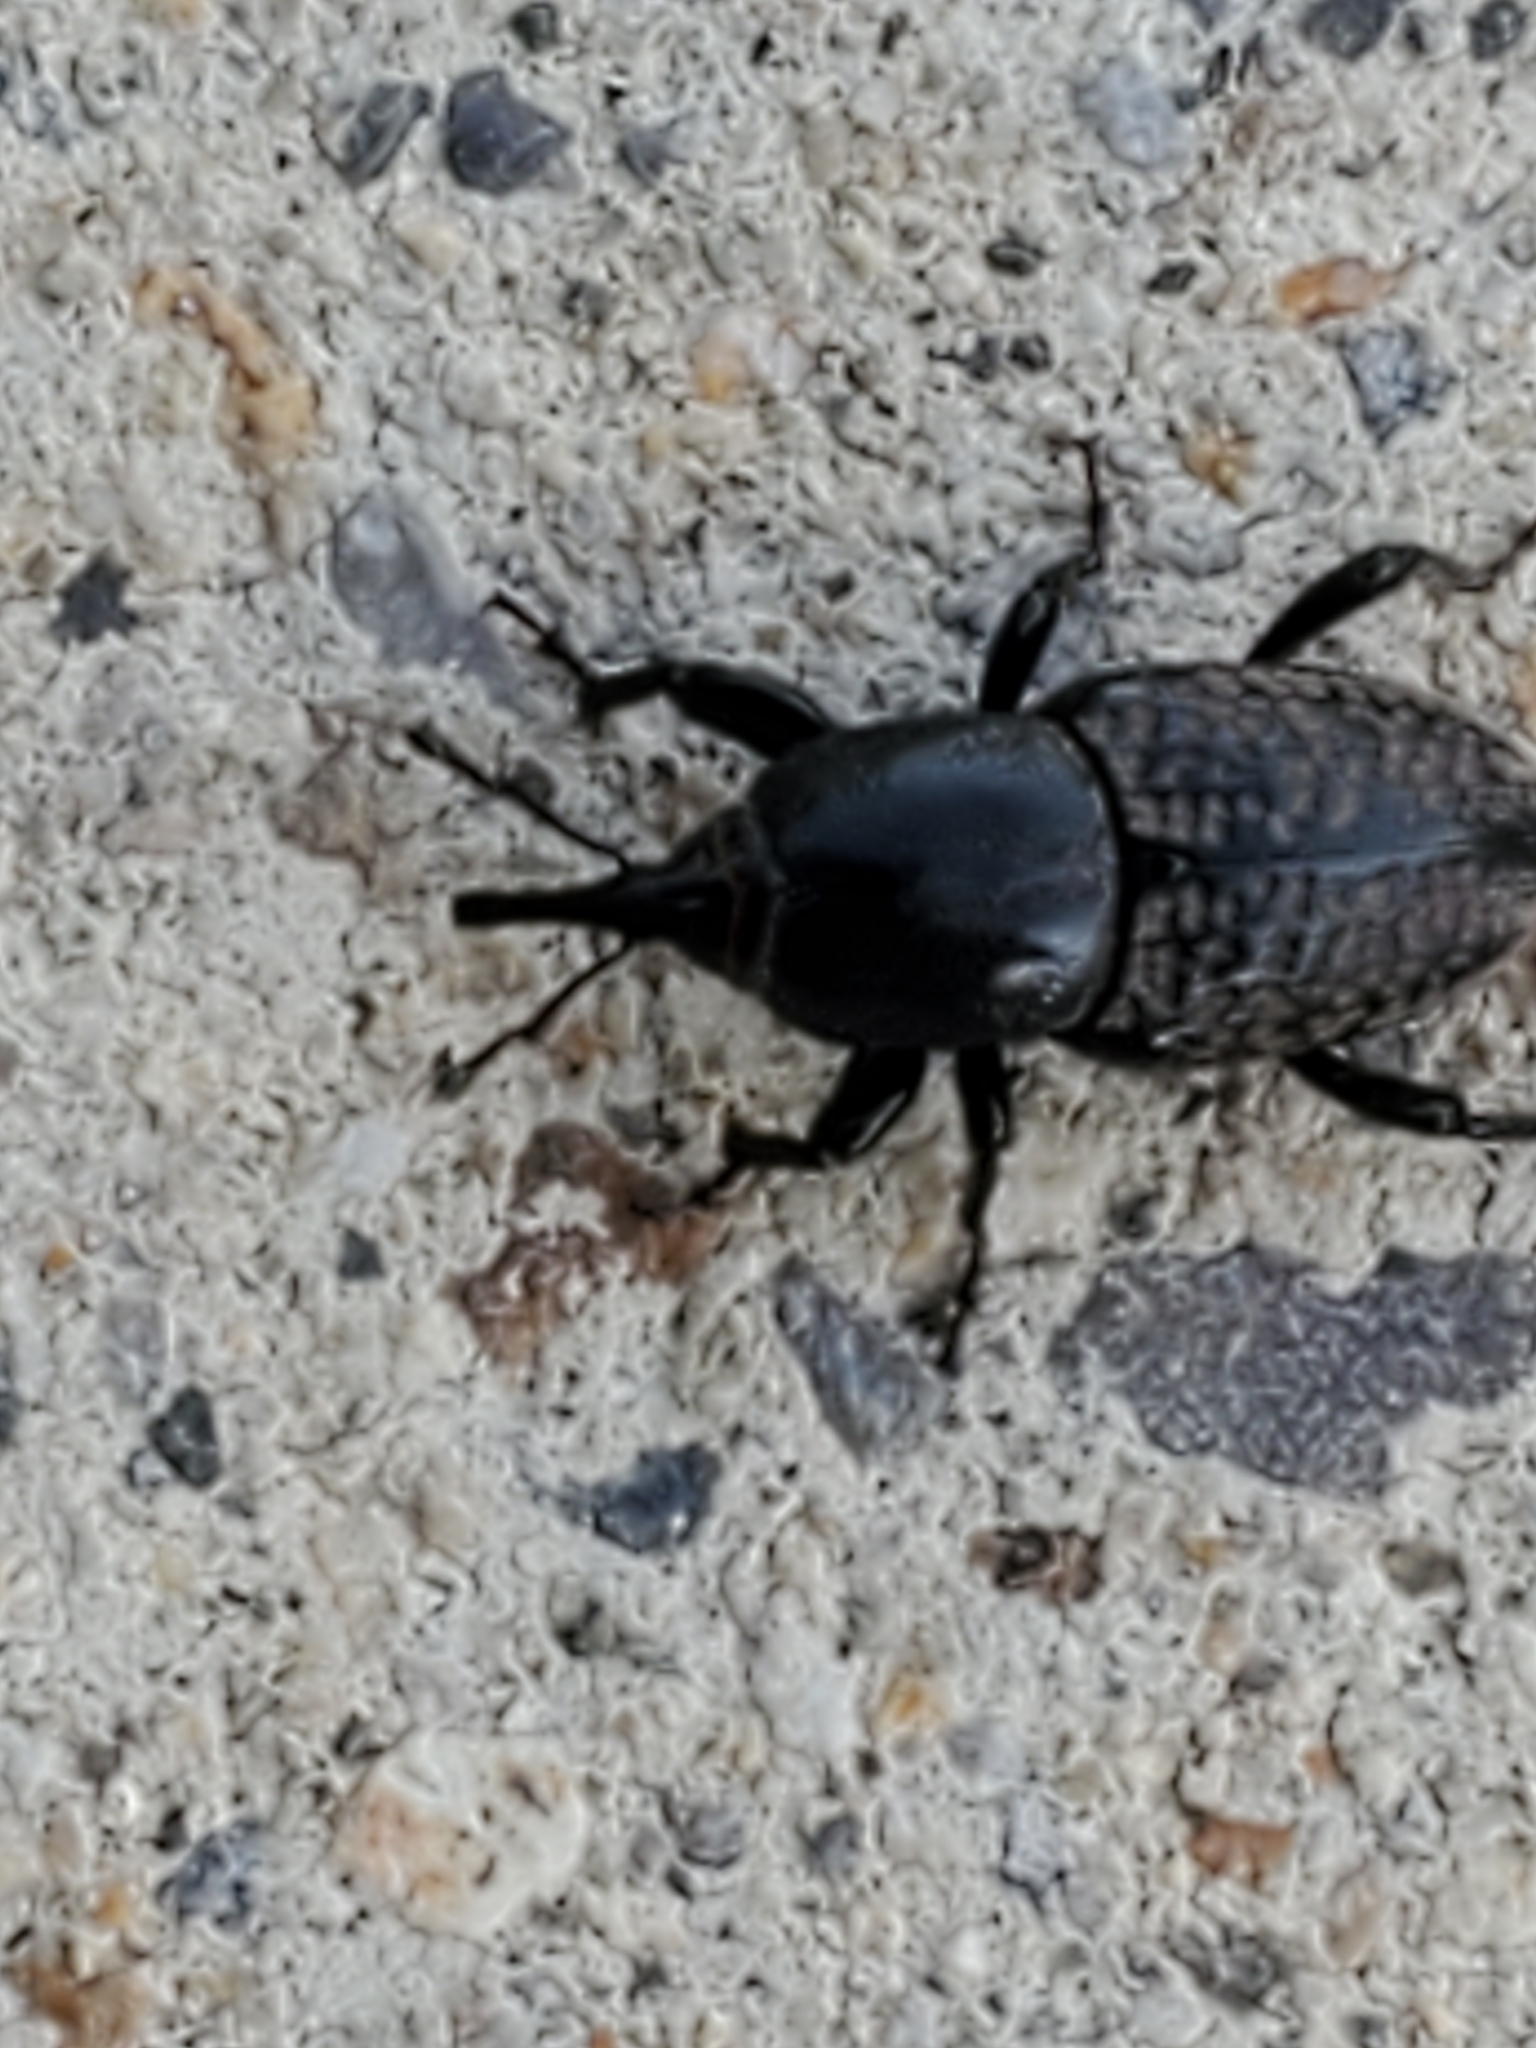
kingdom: Animalia
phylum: Arthropoda
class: Insecta
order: Coleoptera
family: Dryophthoridae
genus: Sphenophorus
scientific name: Sphenophorus cicatristriatus
